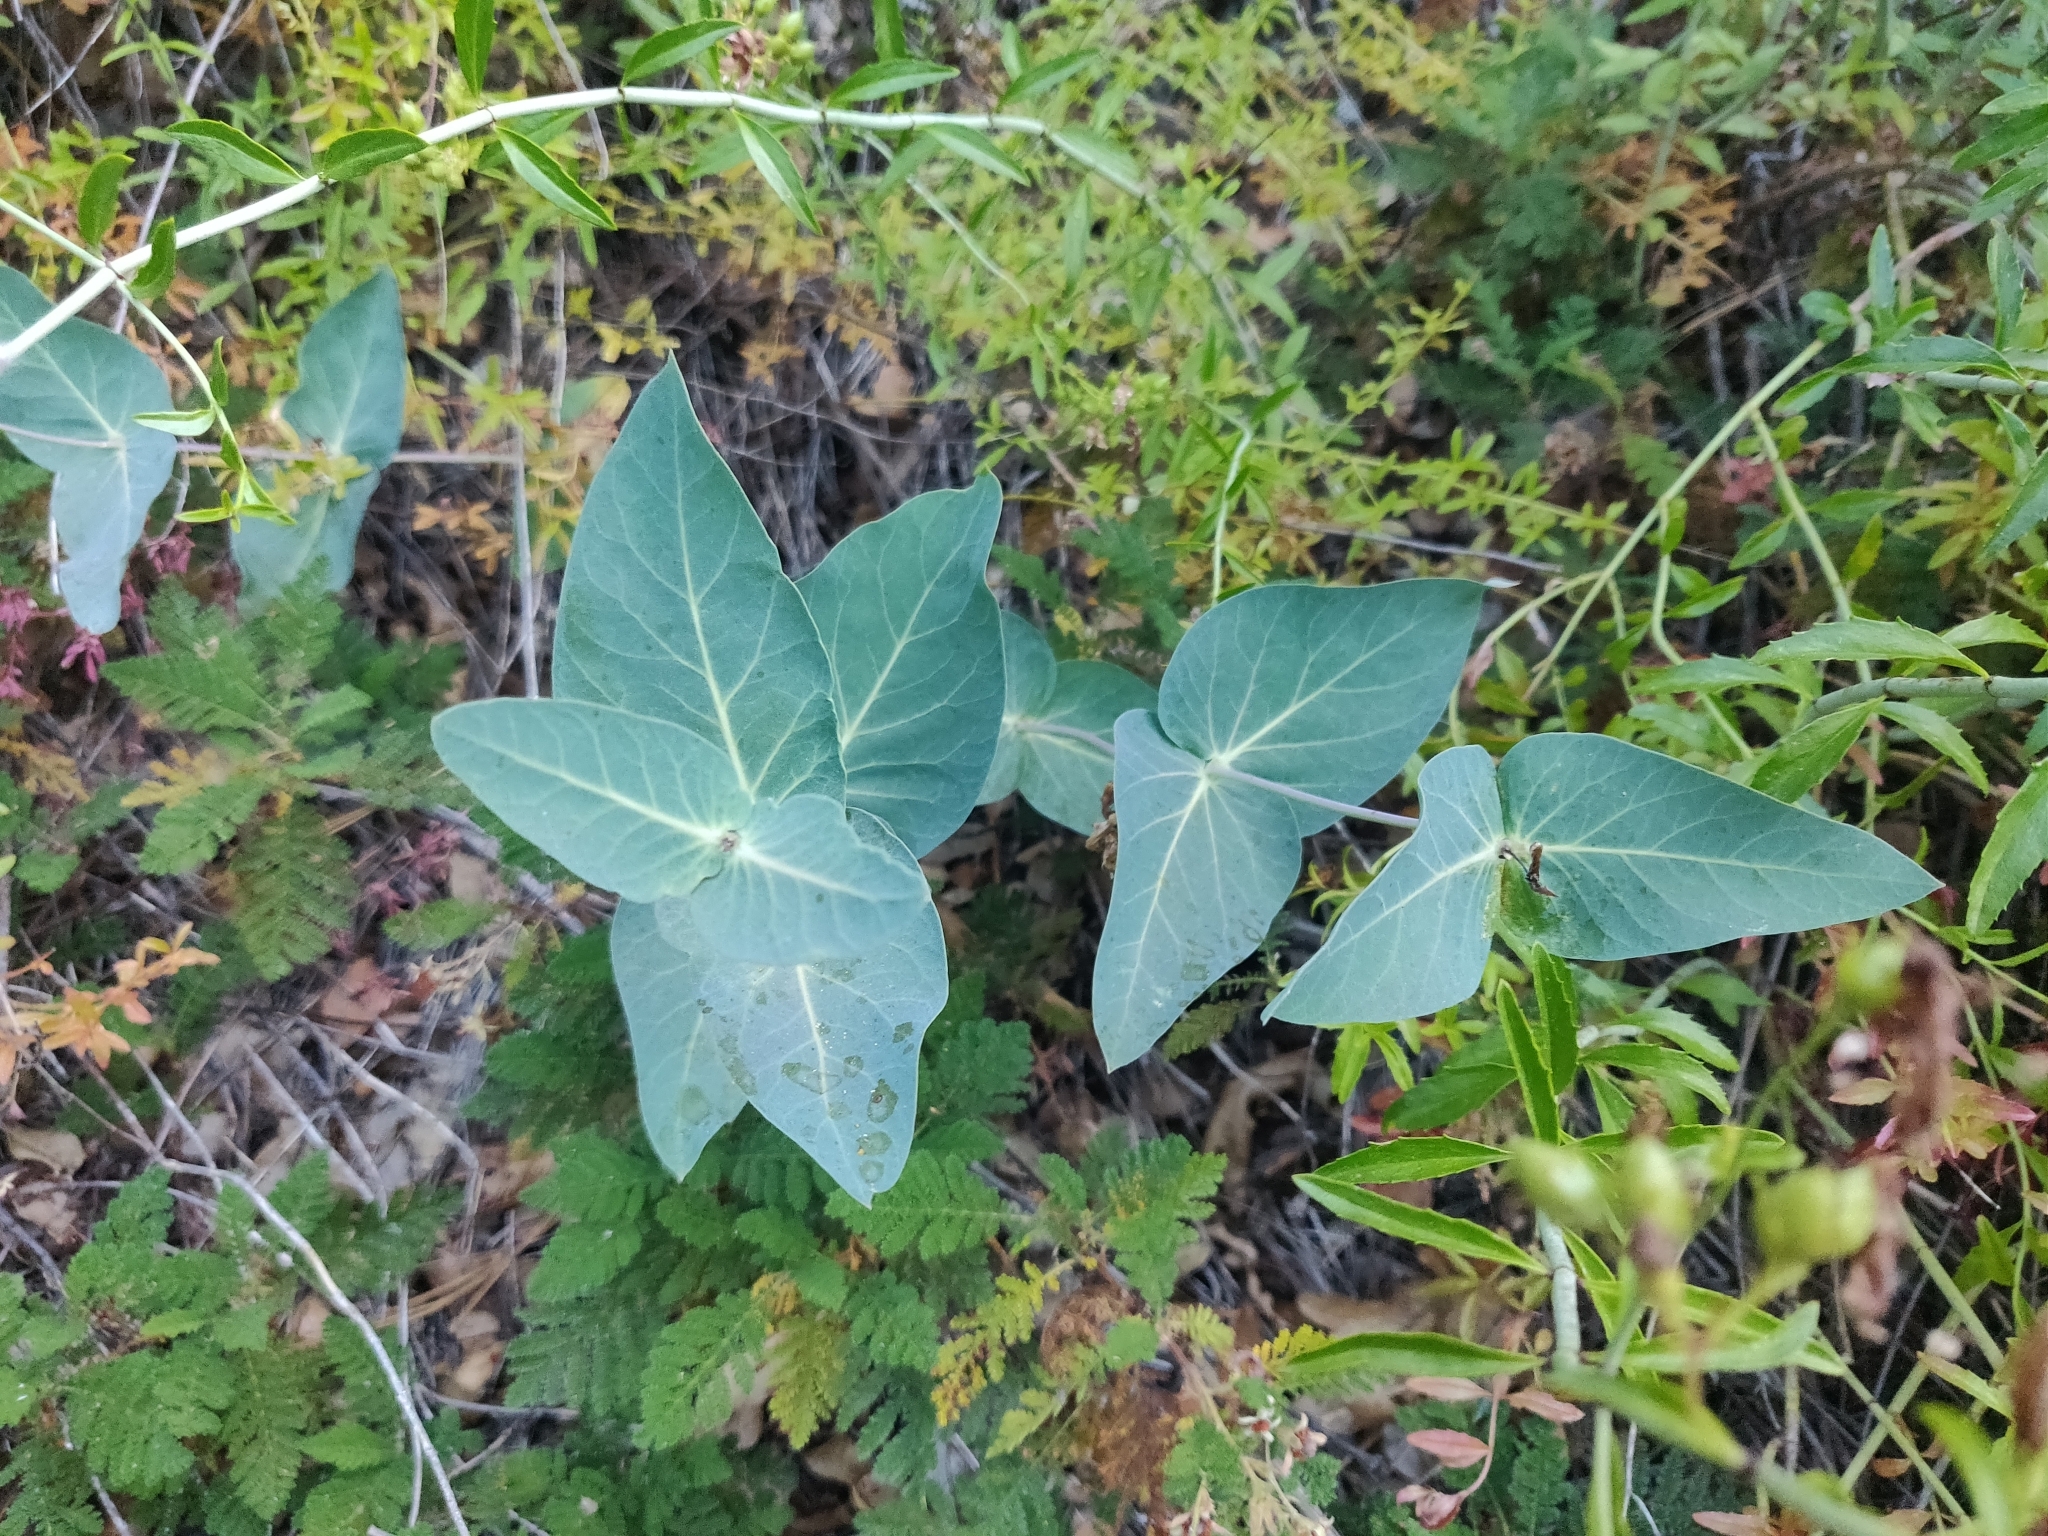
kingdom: Plantae
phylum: Tracheophyta
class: Magnoliopsida
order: Gentianales
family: Apocynaceae
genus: Asclepias
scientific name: Asclepias cordifolia
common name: Purple milkweed
